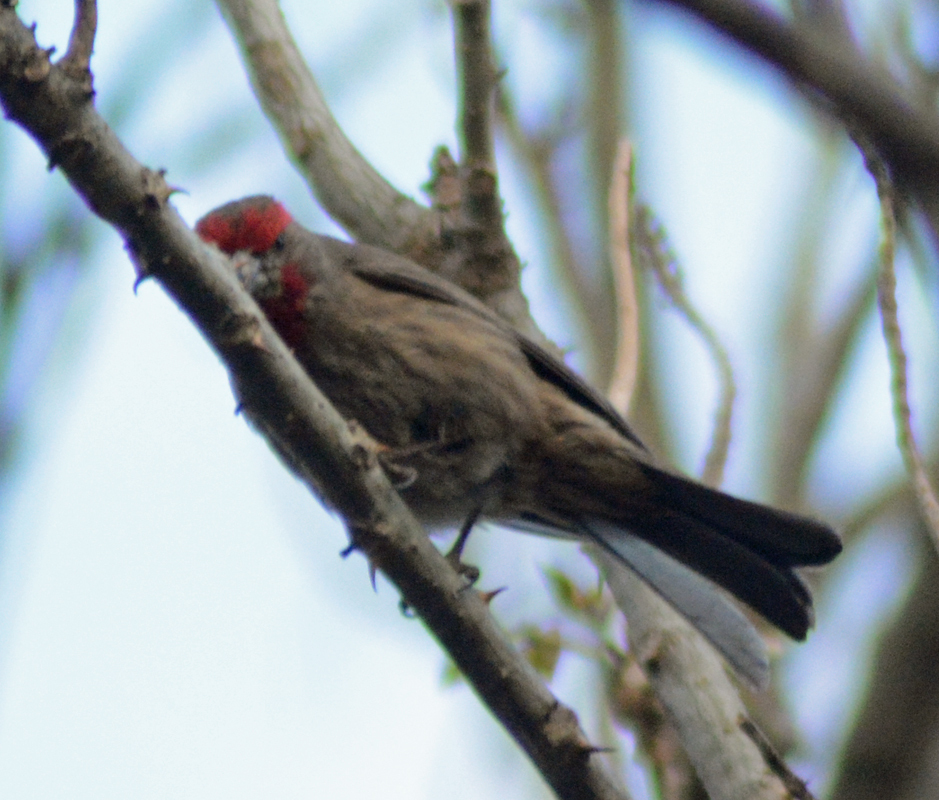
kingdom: Animalia
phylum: Chordata
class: Aves
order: Passeriformes
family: Fringillidae
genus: Haemorhous
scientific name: Haemorhous mexicanus
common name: House finch
